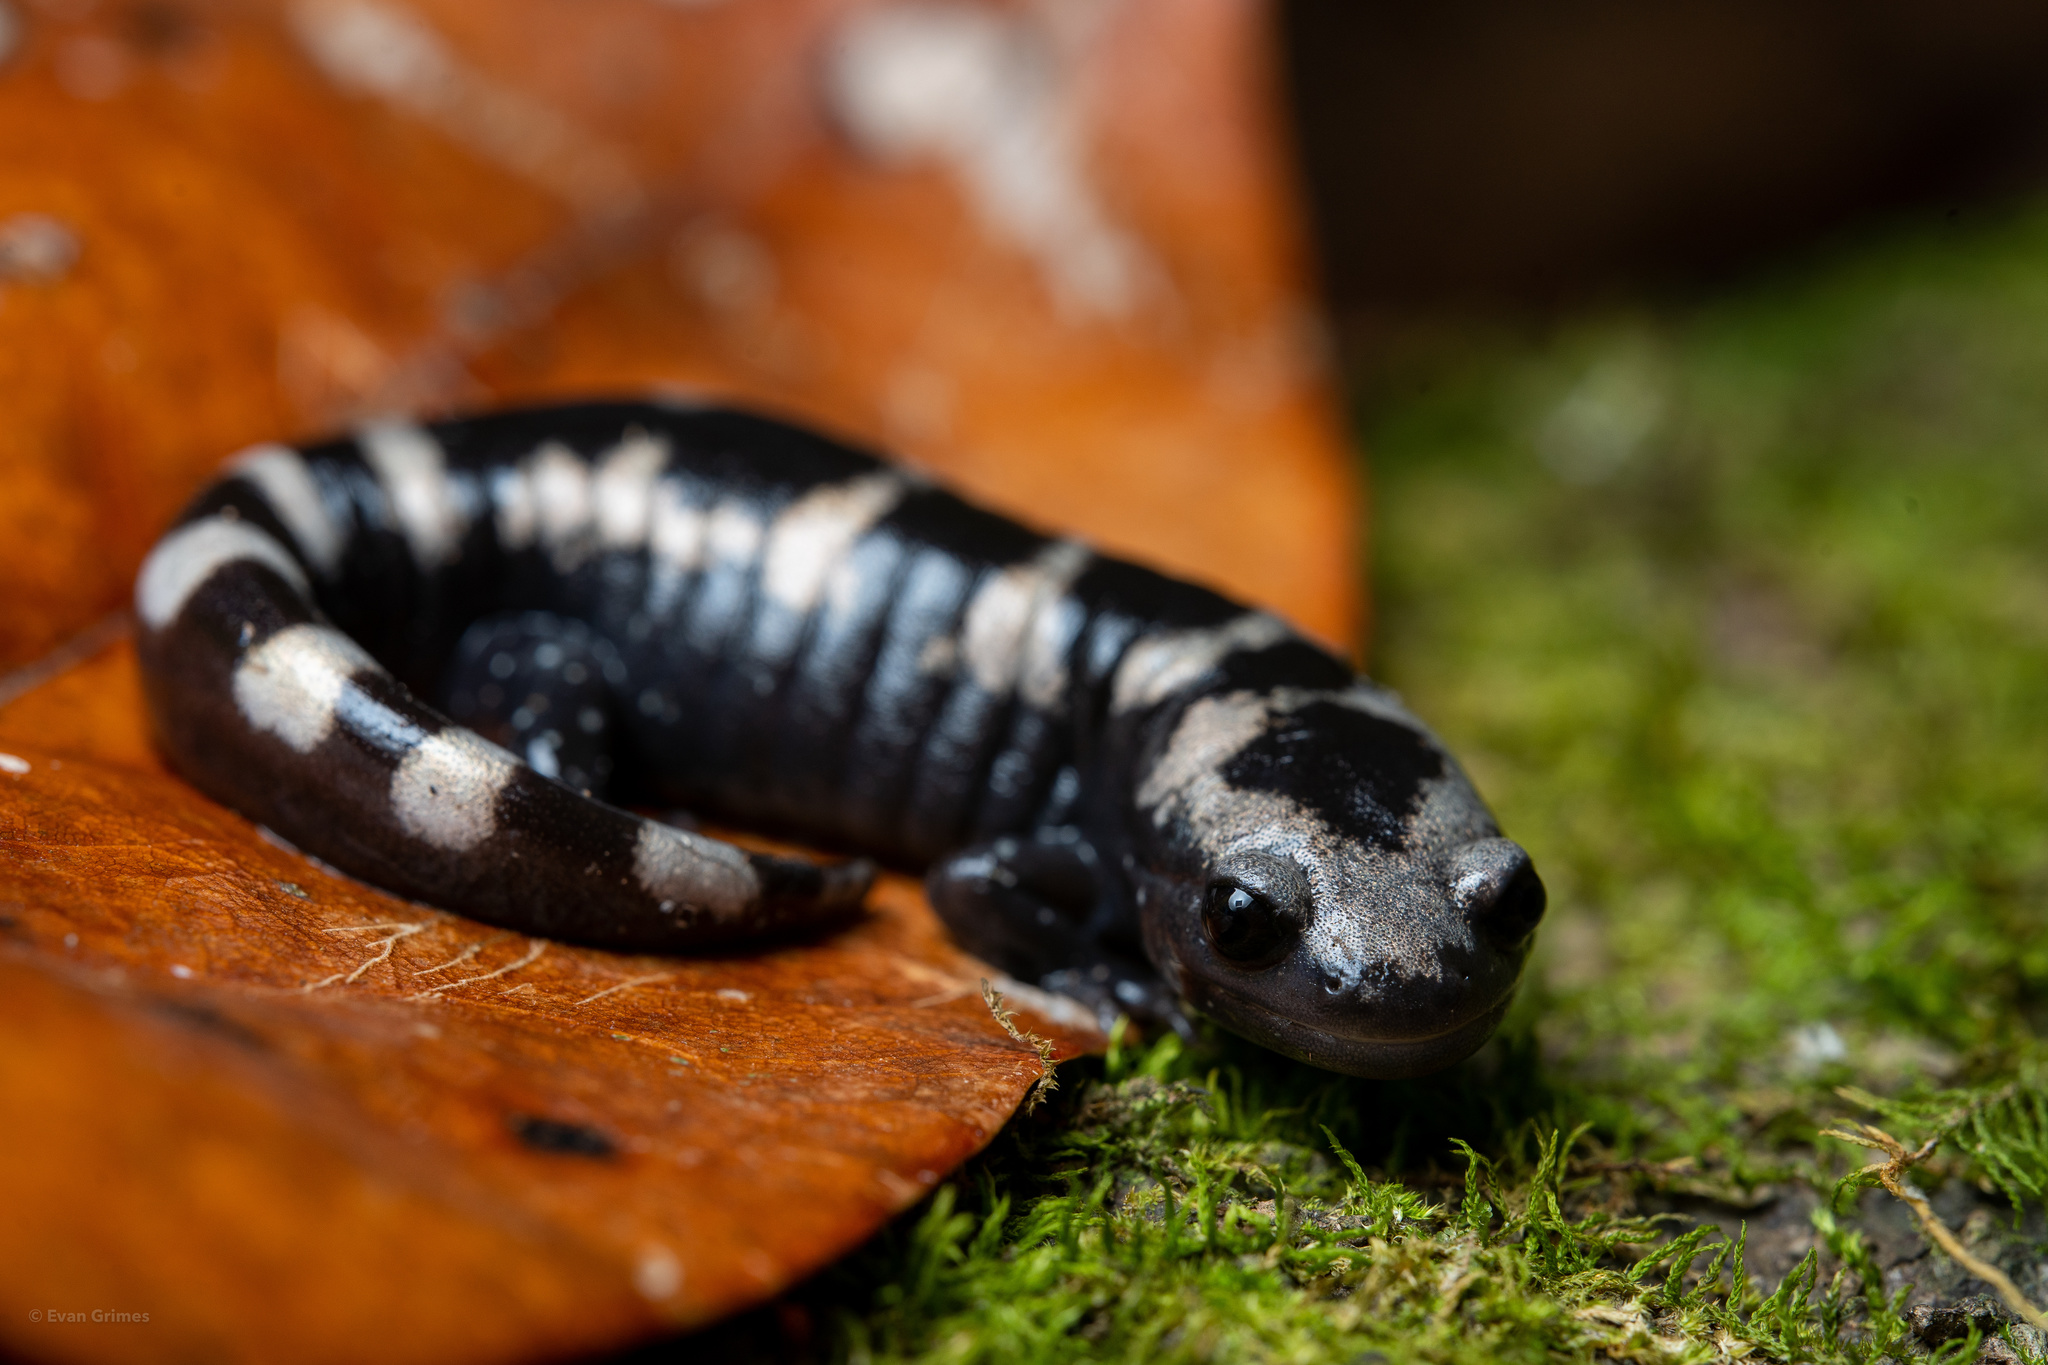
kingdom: Animalia
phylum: Chordata
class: Amphibia
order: Caudata
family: Ambystomatidae
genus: Ambystoma
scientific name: Ambystoma opacum
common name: Marbled salamander
